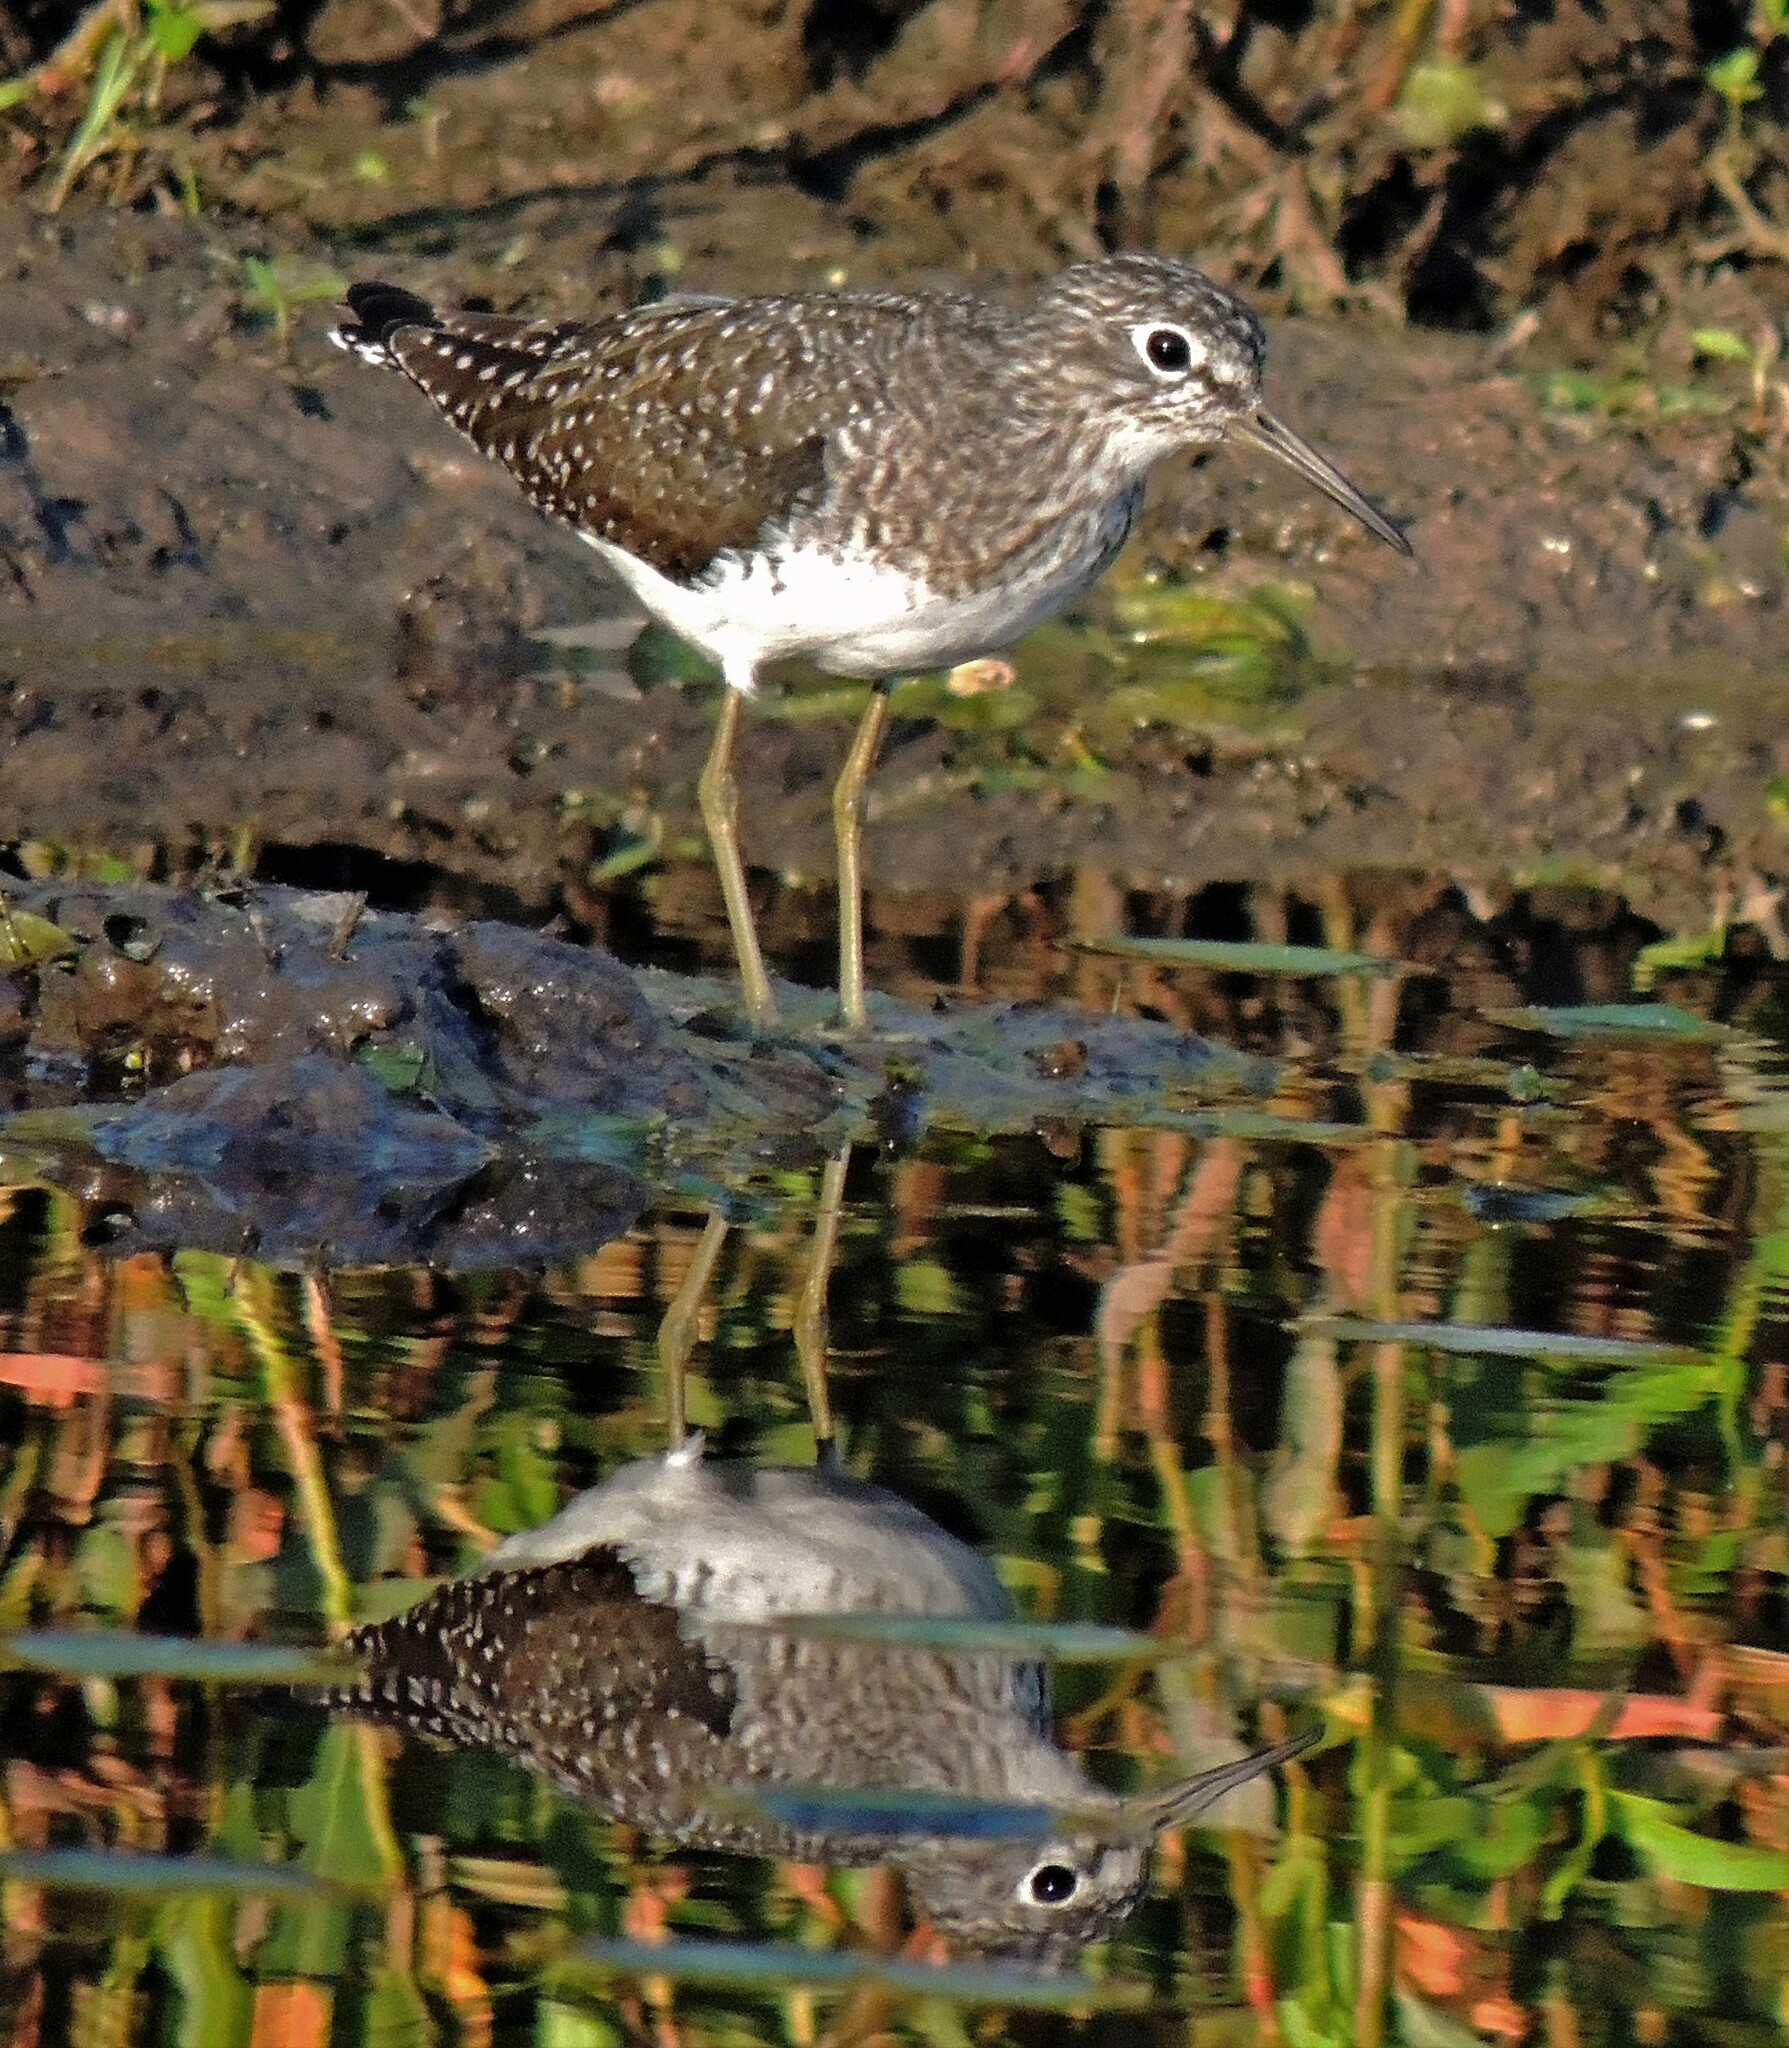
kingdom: Animalia
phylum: Chordata
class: Aves
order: Charadriiformes
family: Scolopacidae
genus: Tringa
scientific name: Tringa solitaria
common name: Solitary sandpiper
